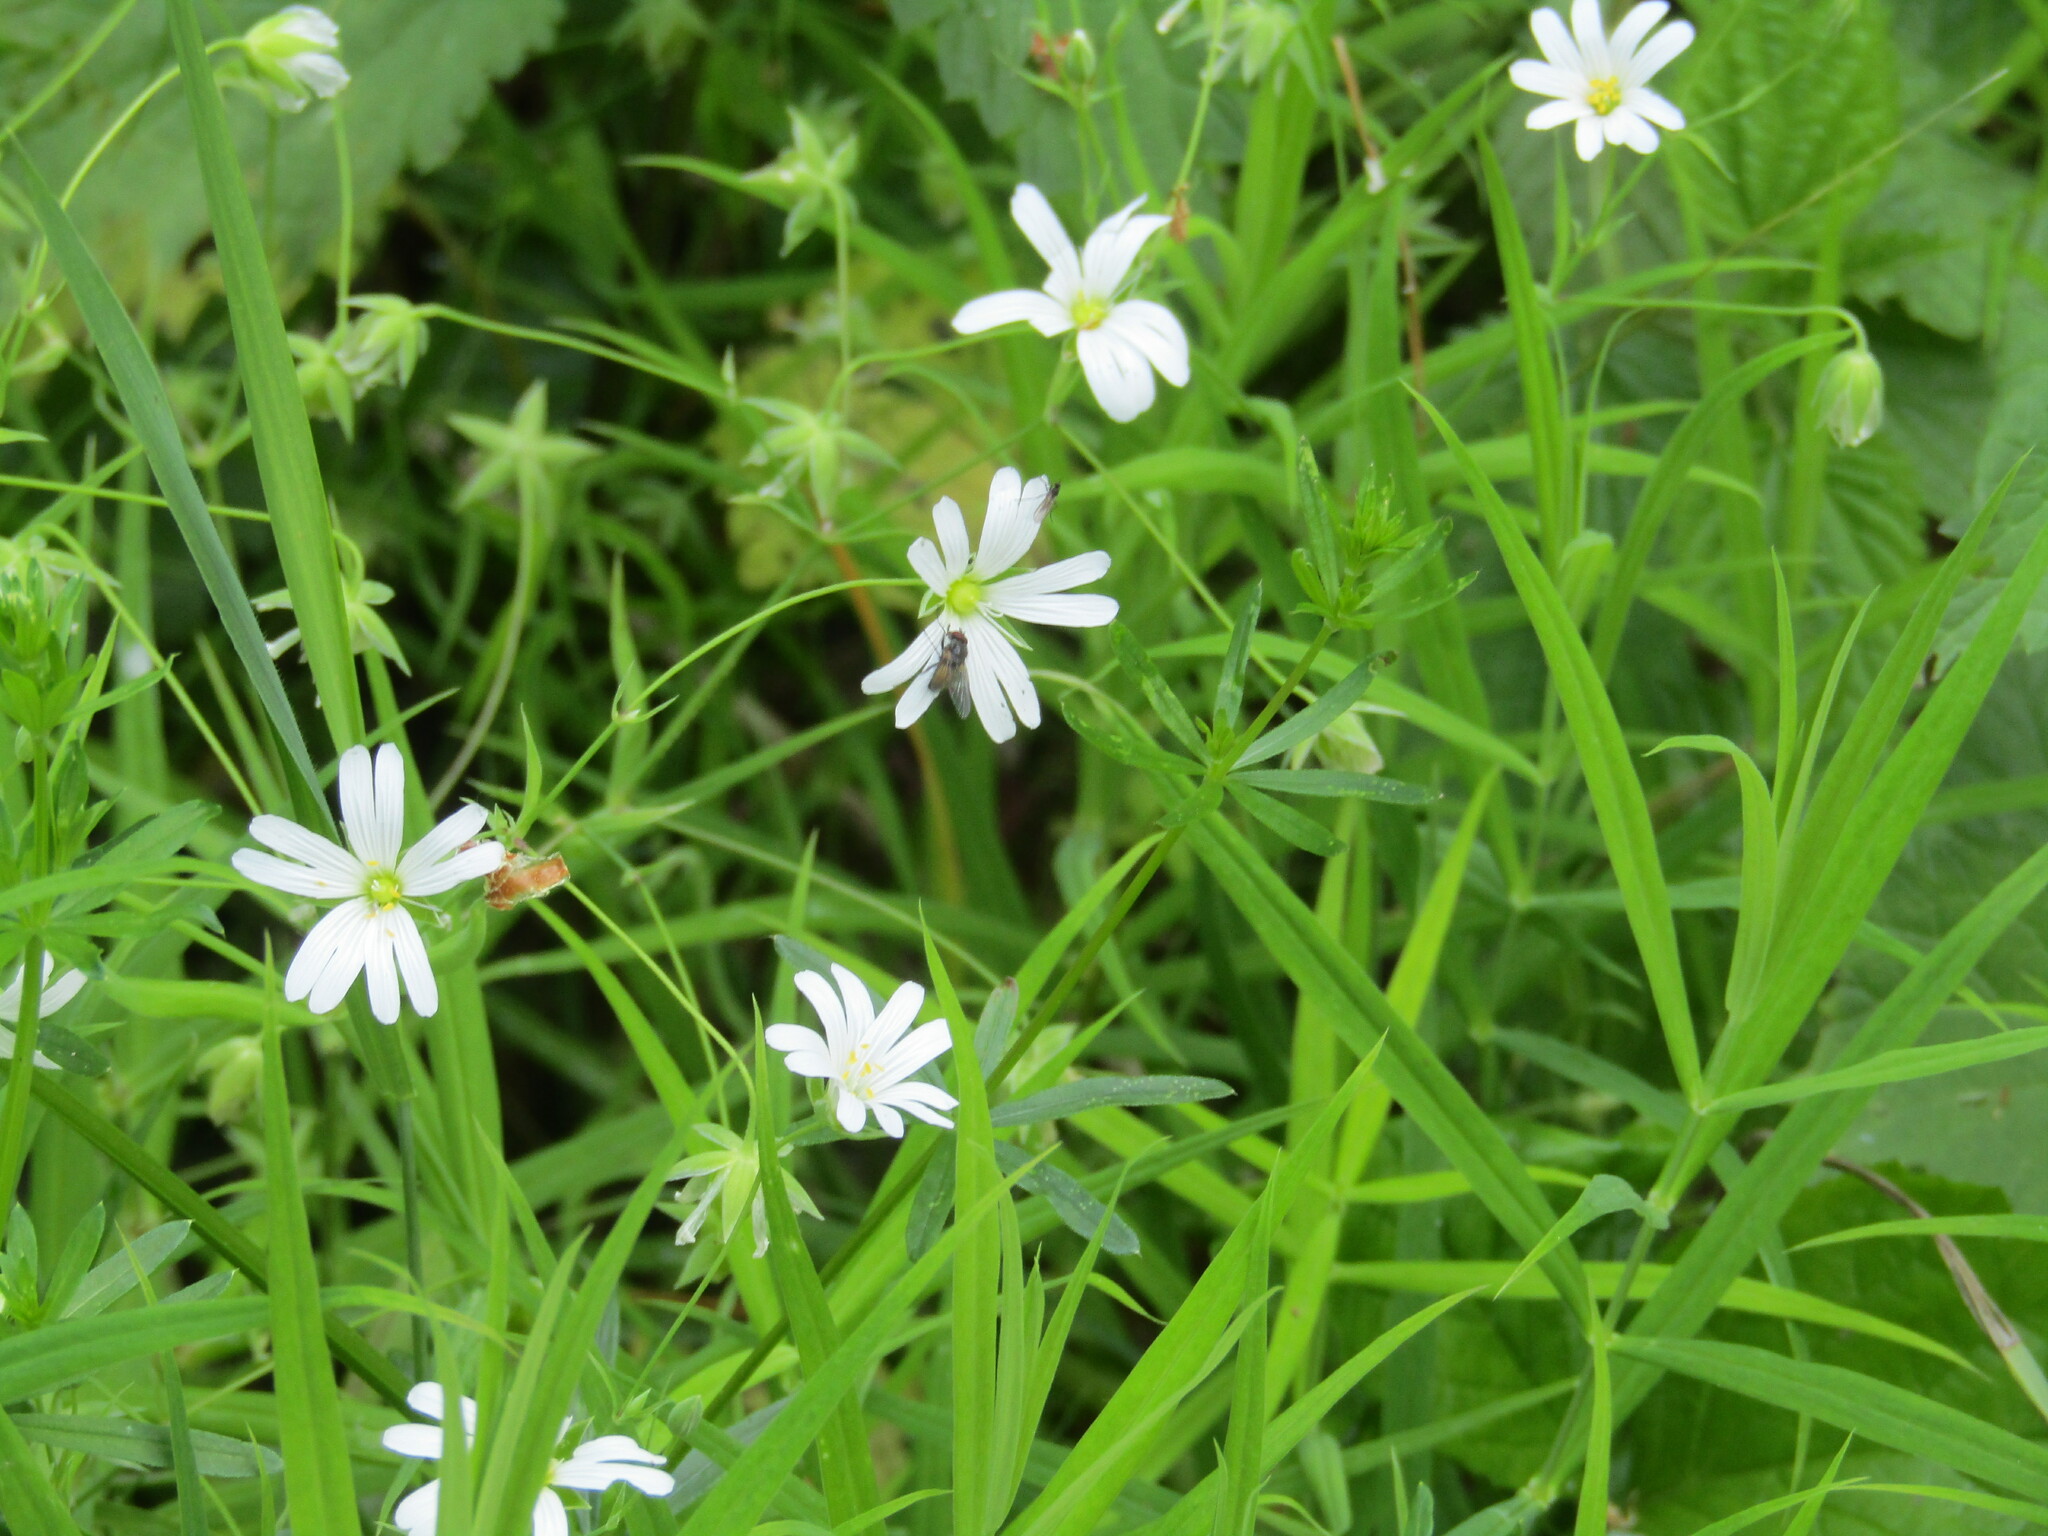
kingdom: Plantae
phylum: Tracheophyta
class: Magnoliopsida
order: Caryophyllales
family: Caryophyllaceae
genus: Rabelera
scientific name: Rabelera holostea
